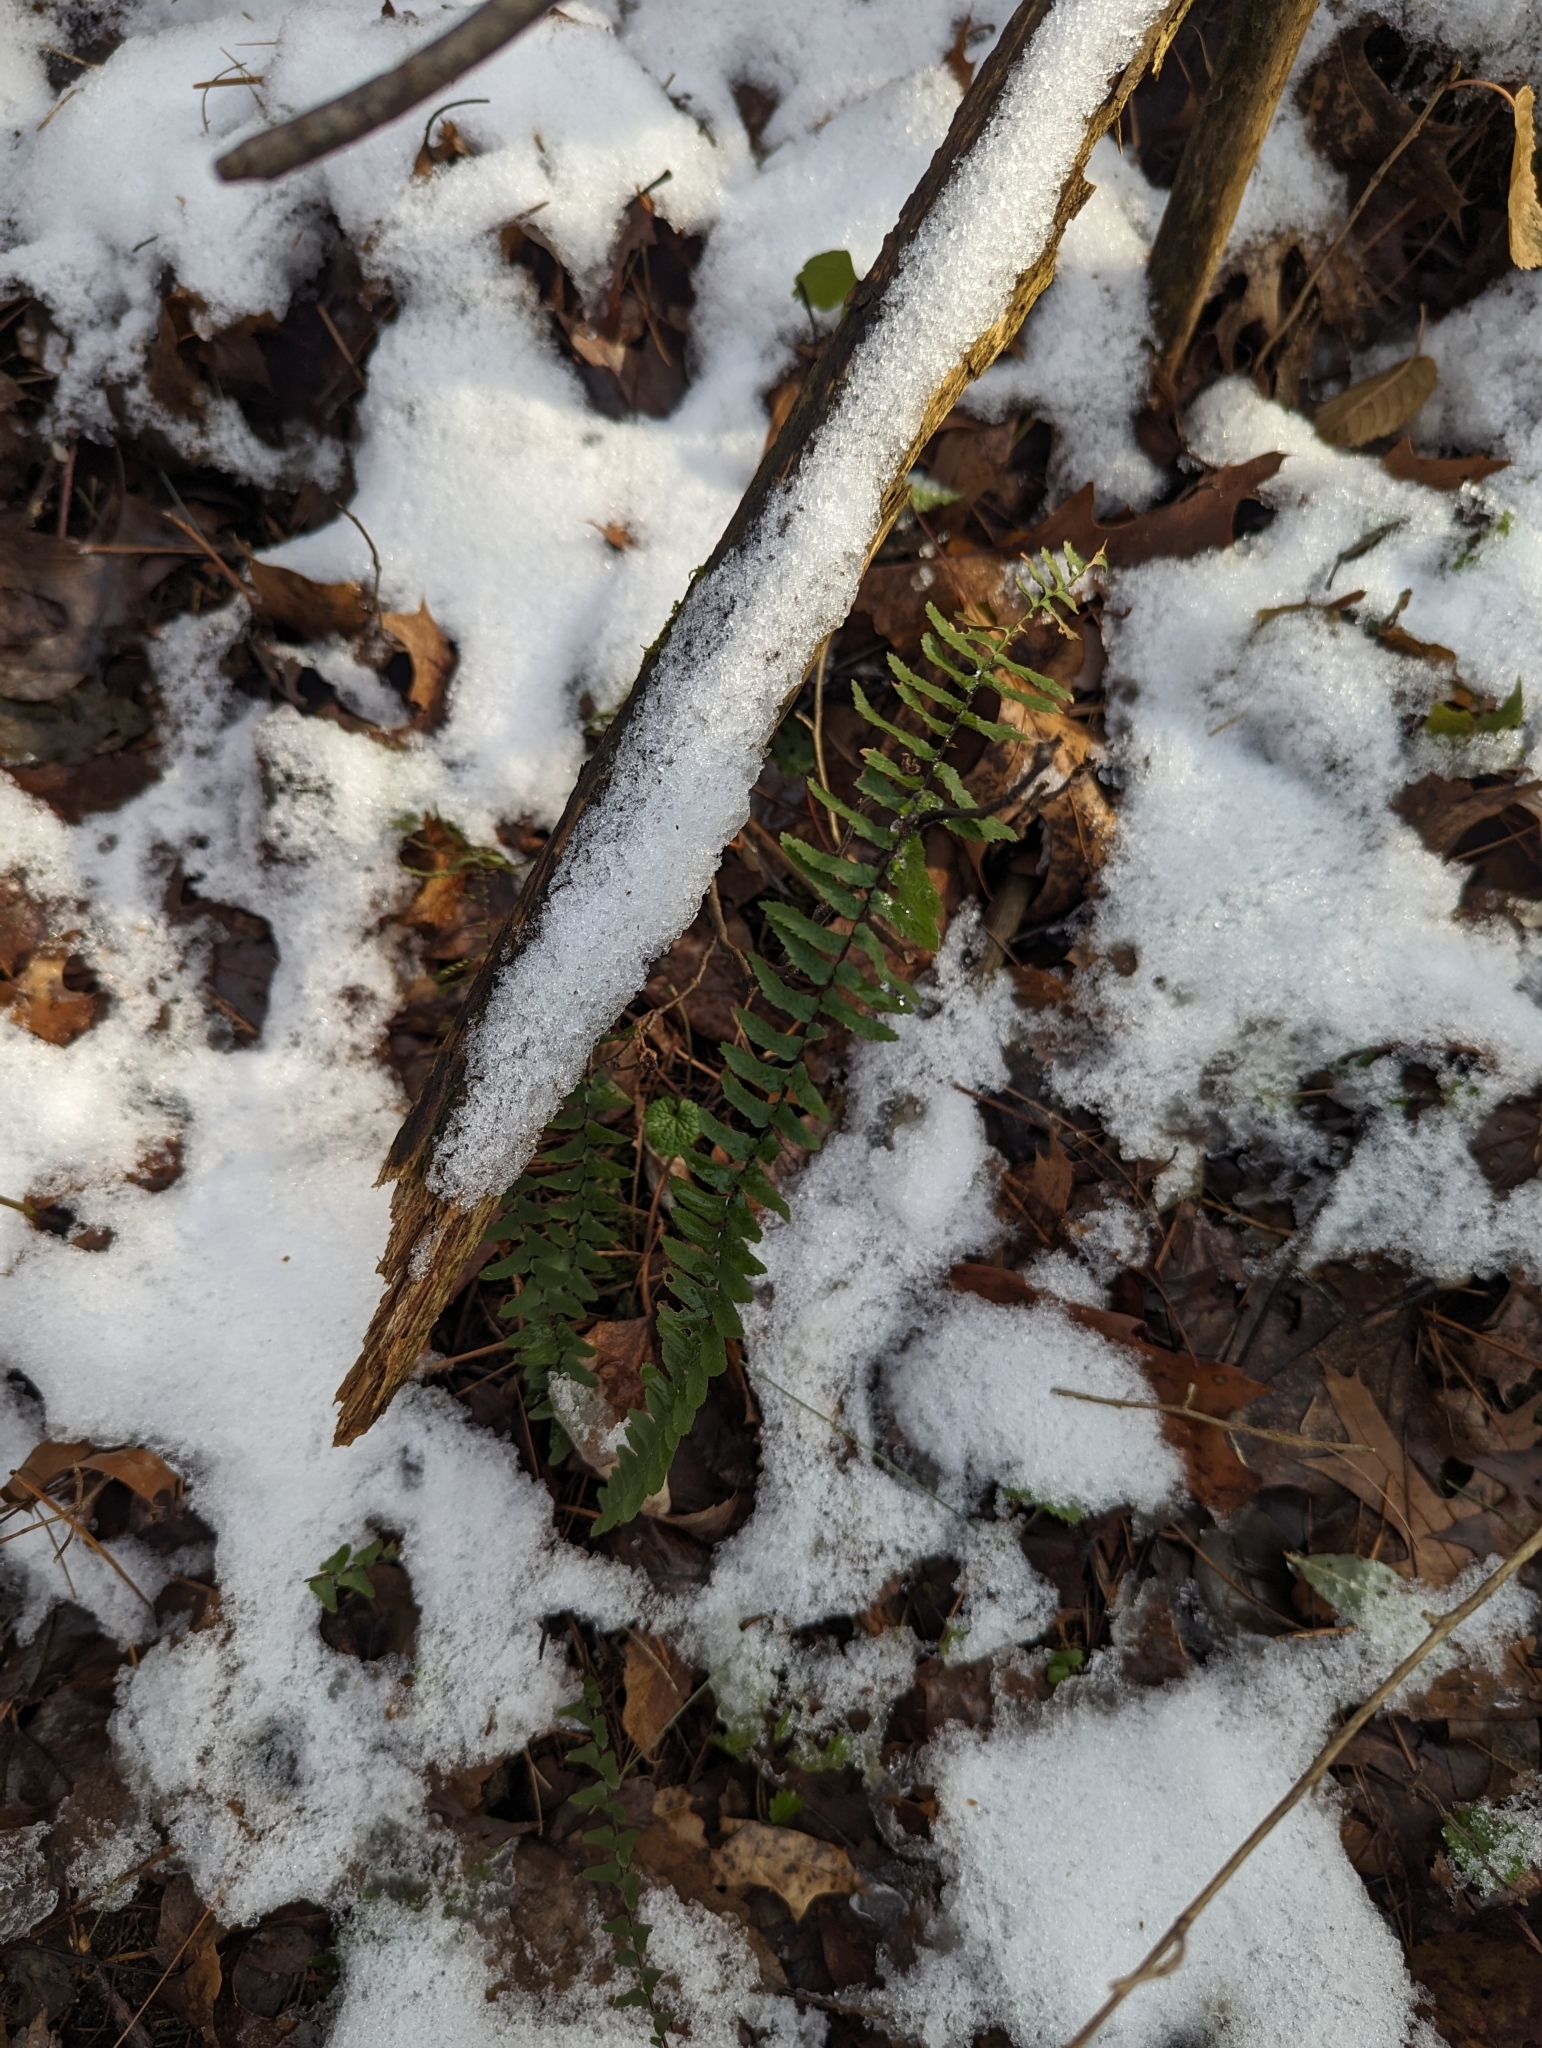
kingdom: Plantae
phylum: Tracheophyta
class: Polypodiopsida
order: Polypodiales
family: Aspleniaceae
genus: Asplenium
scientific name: Asplenium platyneuron
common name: Ebony spleenwort
